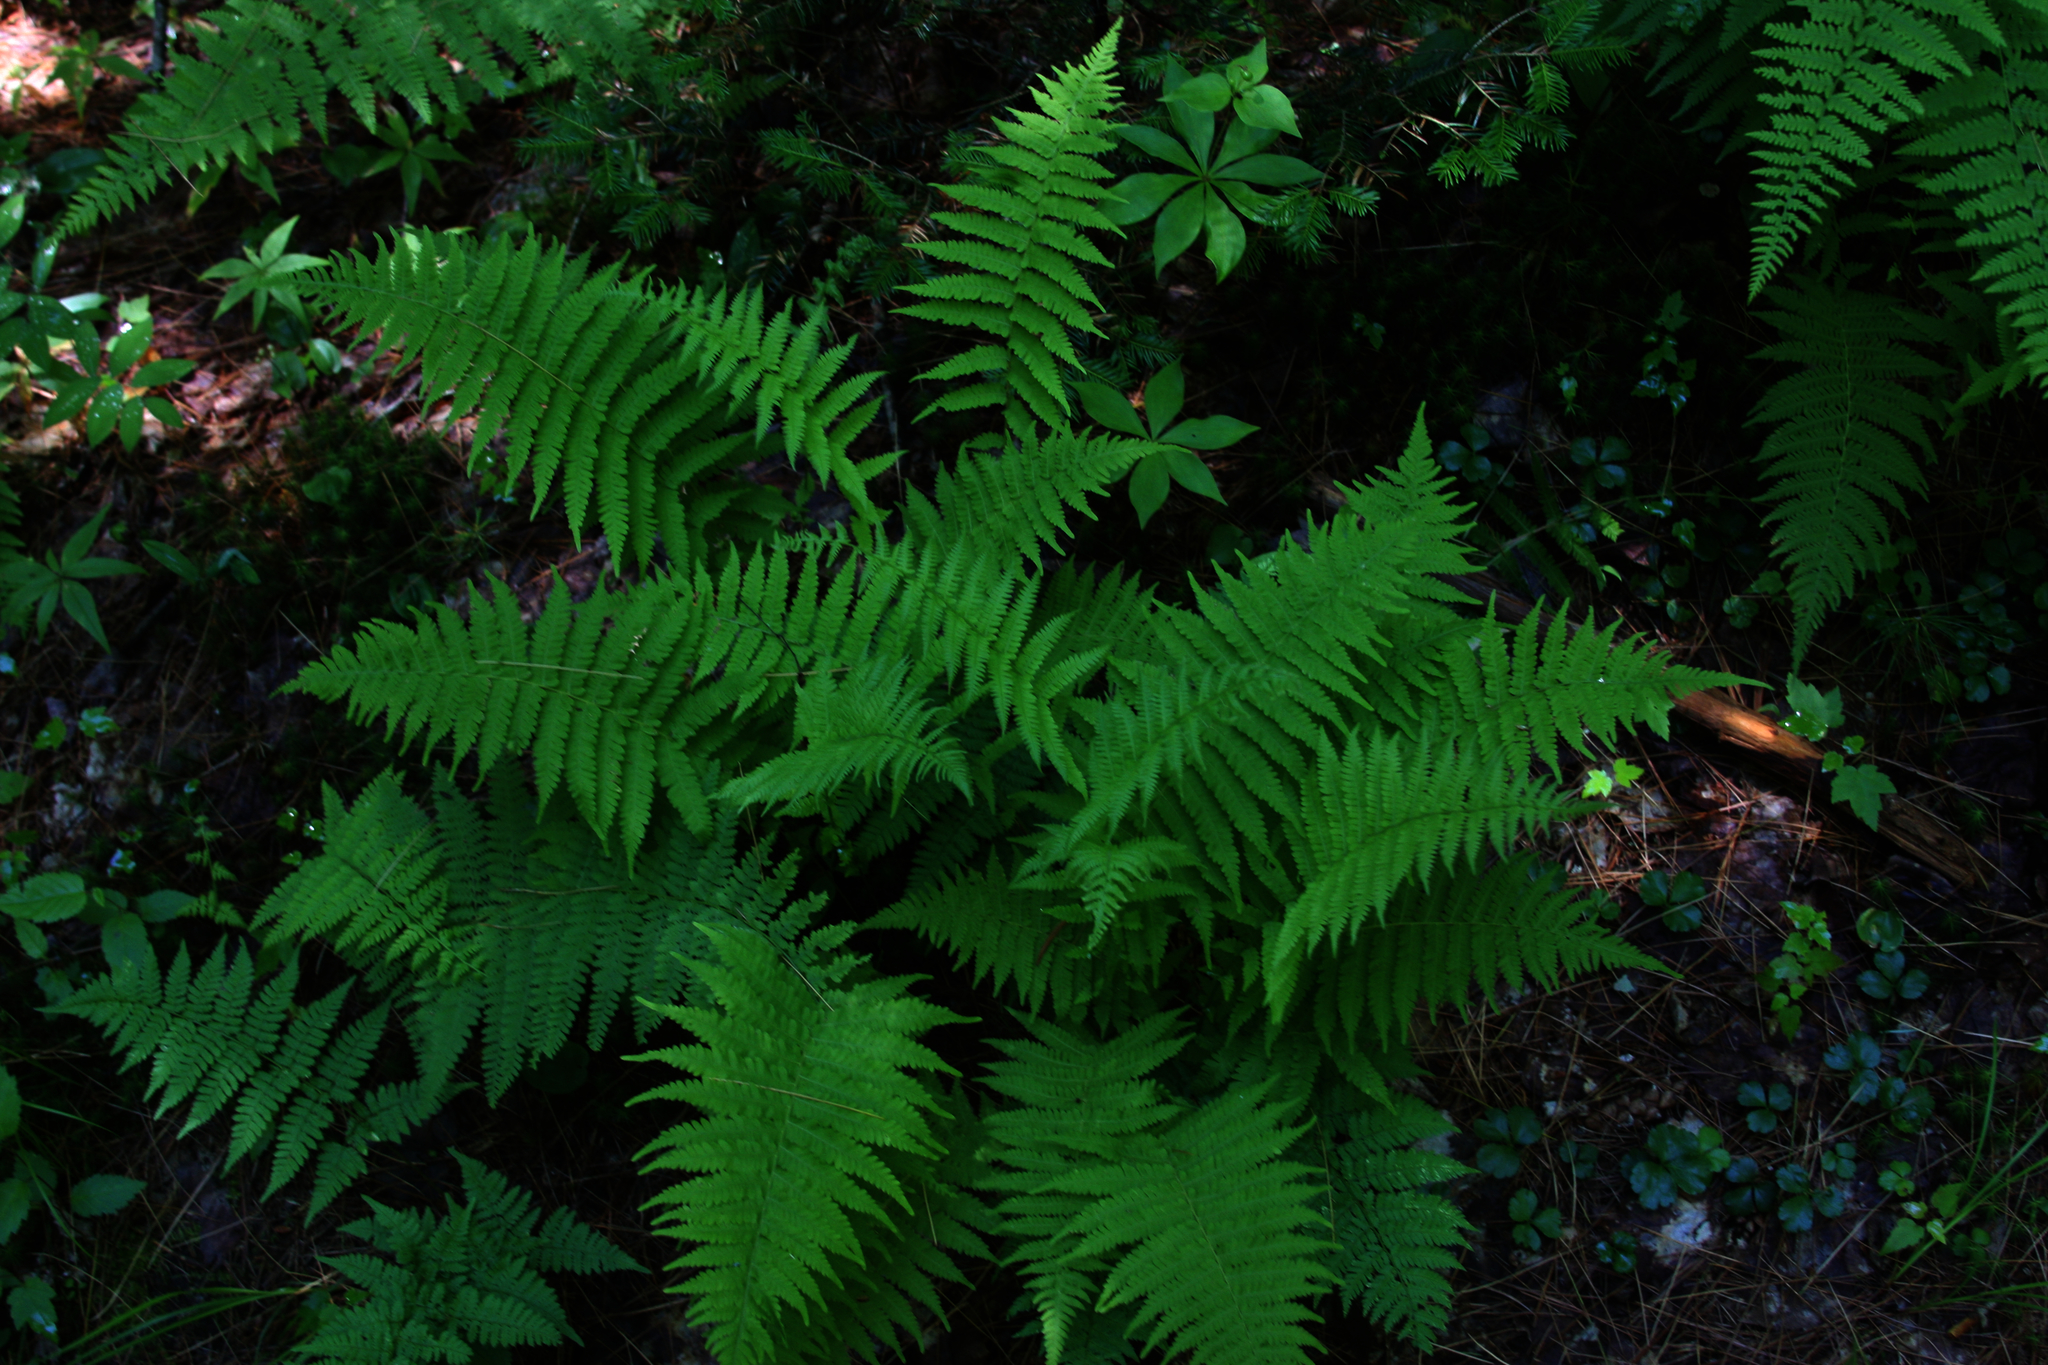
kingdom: Plantae
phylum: Tracheophyta
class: Polypodiopsida
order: Polypodiales
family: Thelypteridaceae
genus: Amauropelta
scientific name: Amauropelta noveboracensis
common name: New york fern
